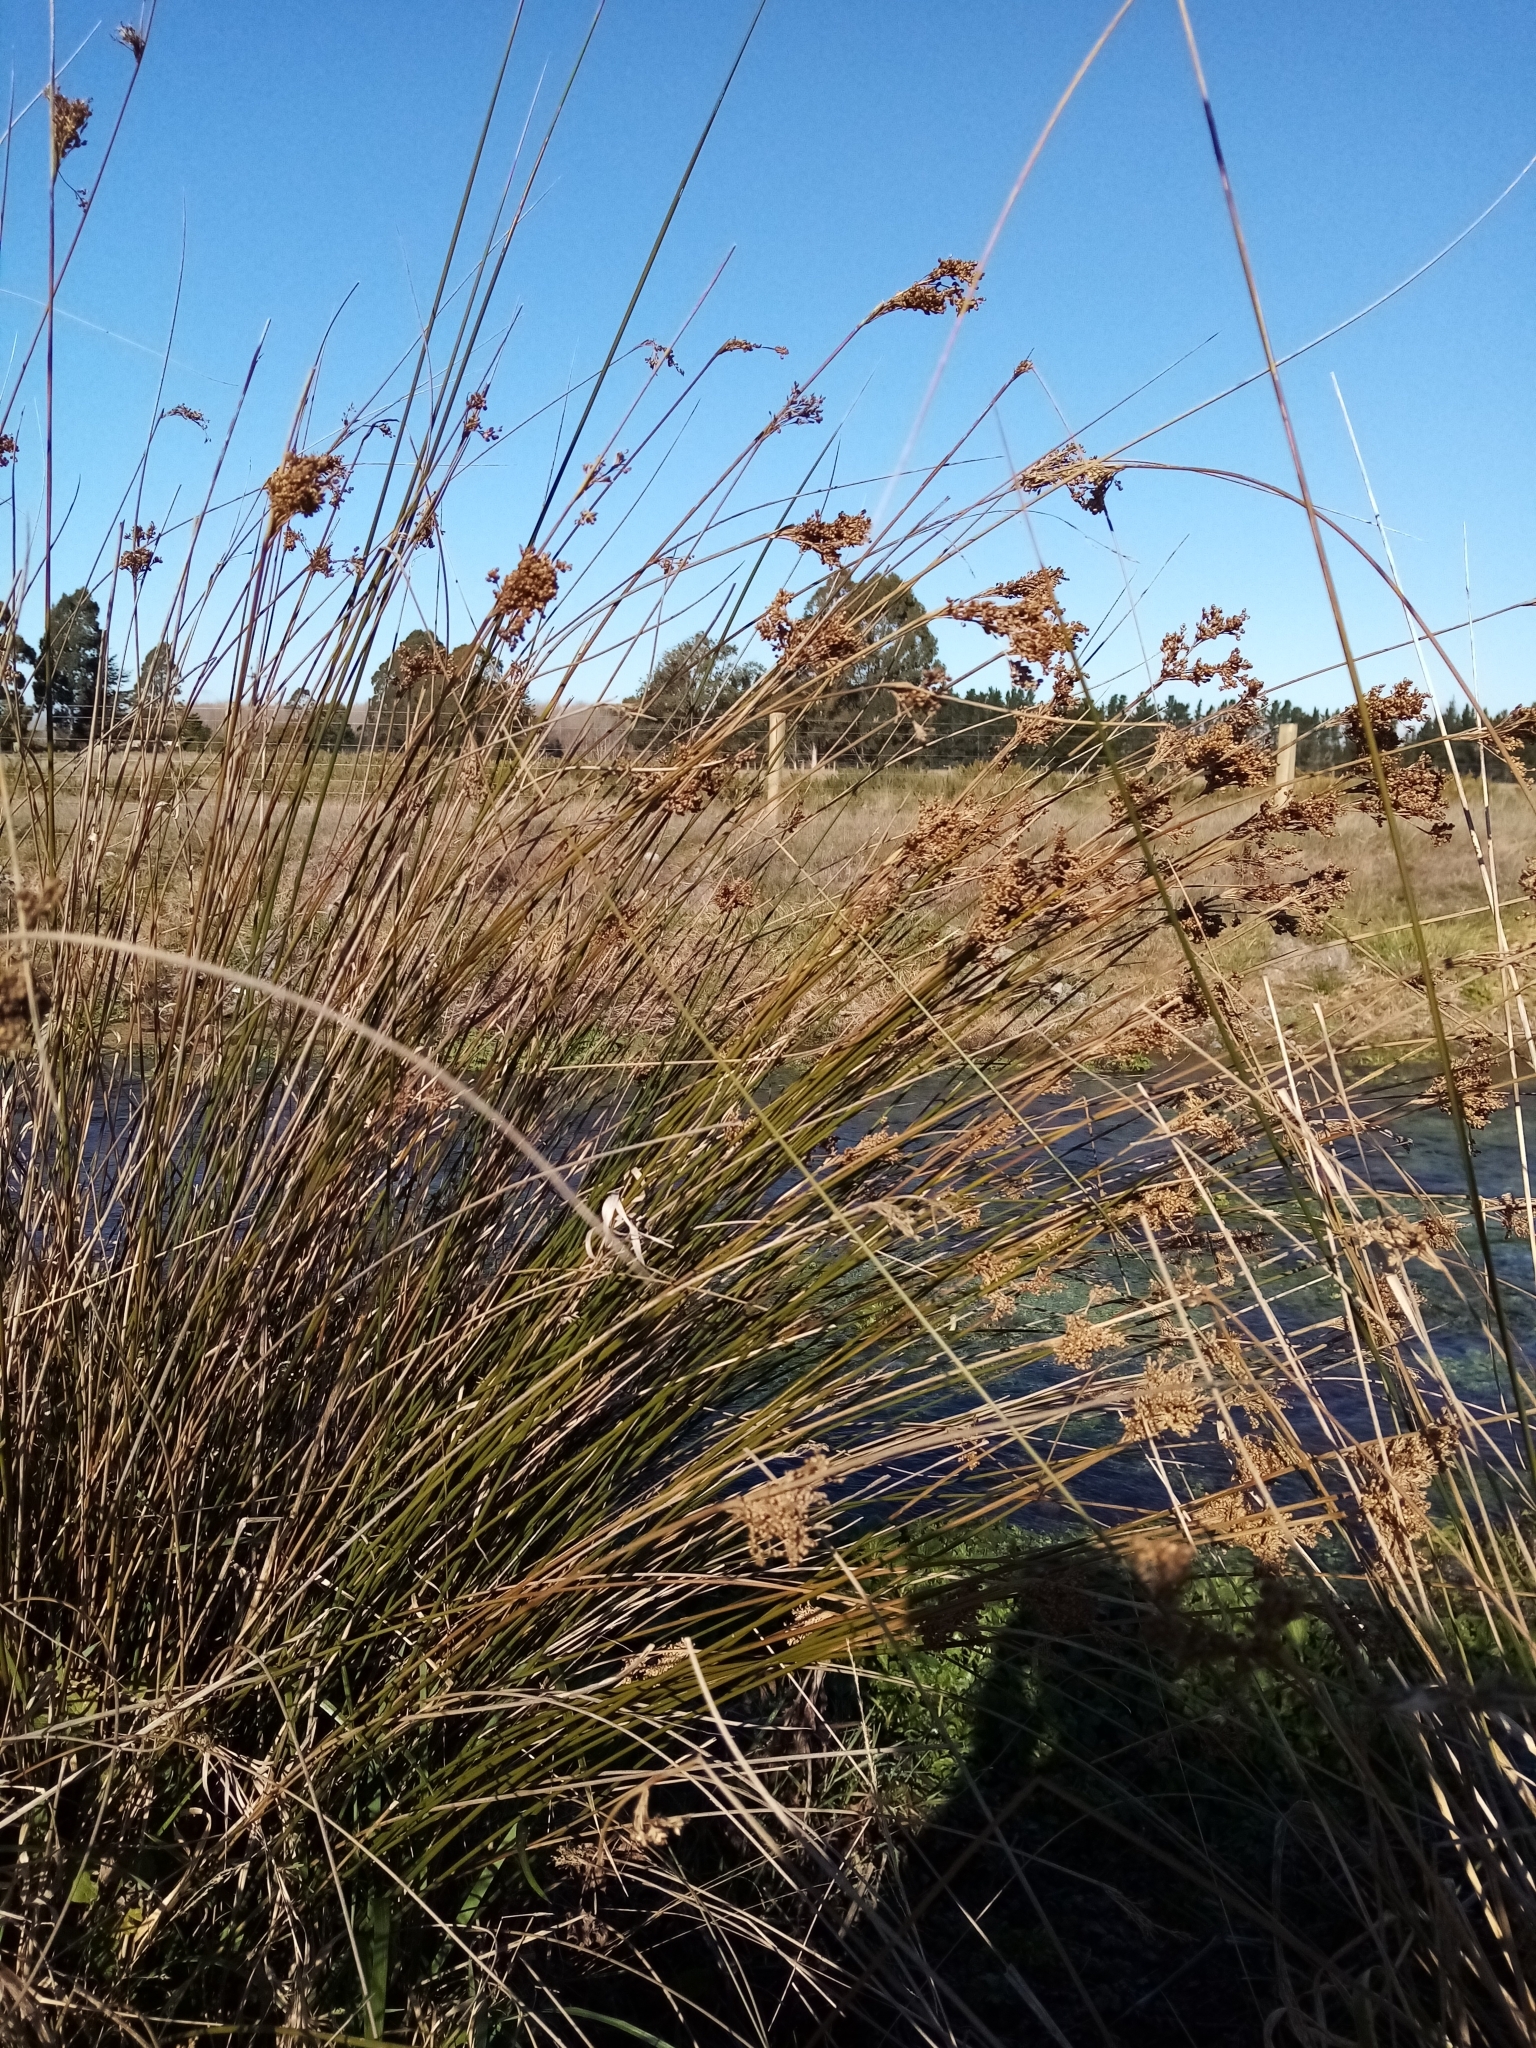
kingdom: Plantae
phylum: Tracheophyta
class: Liliopsida
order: Poales
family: Juncaceae
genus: Juncus
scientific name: Juncus sarophorus
